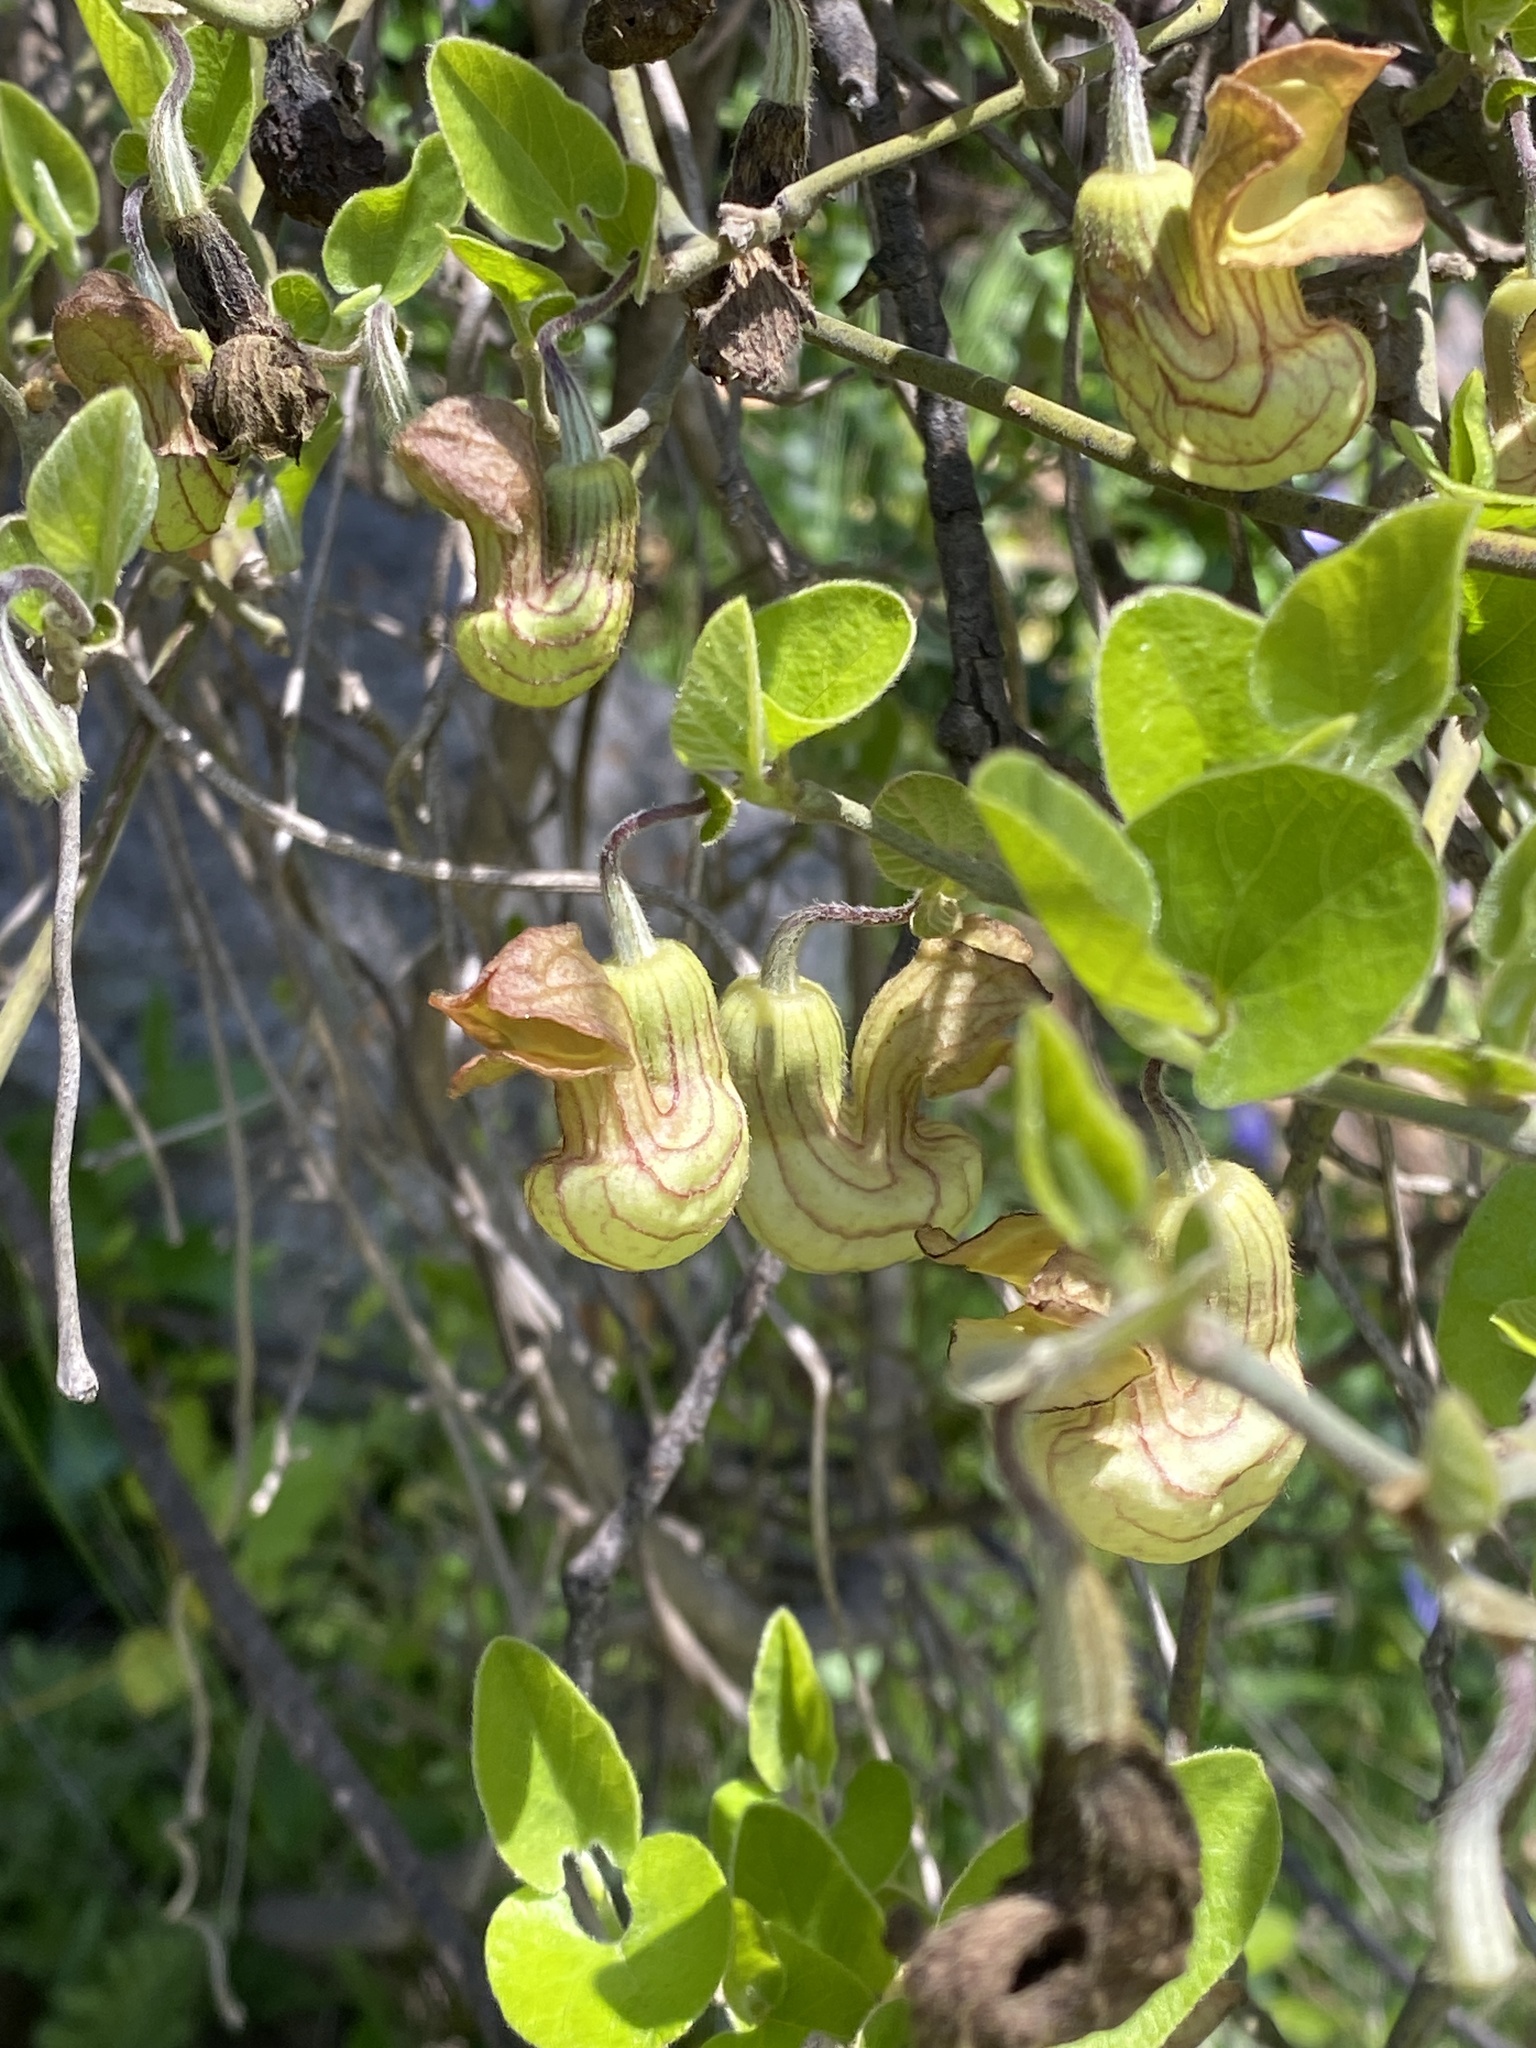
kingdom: Plantae
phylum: Tracheophyta
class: Magnoliopsida
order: Piperales
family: Aristolochiaceae
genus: Isotrema
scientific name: Isotrema californicum
